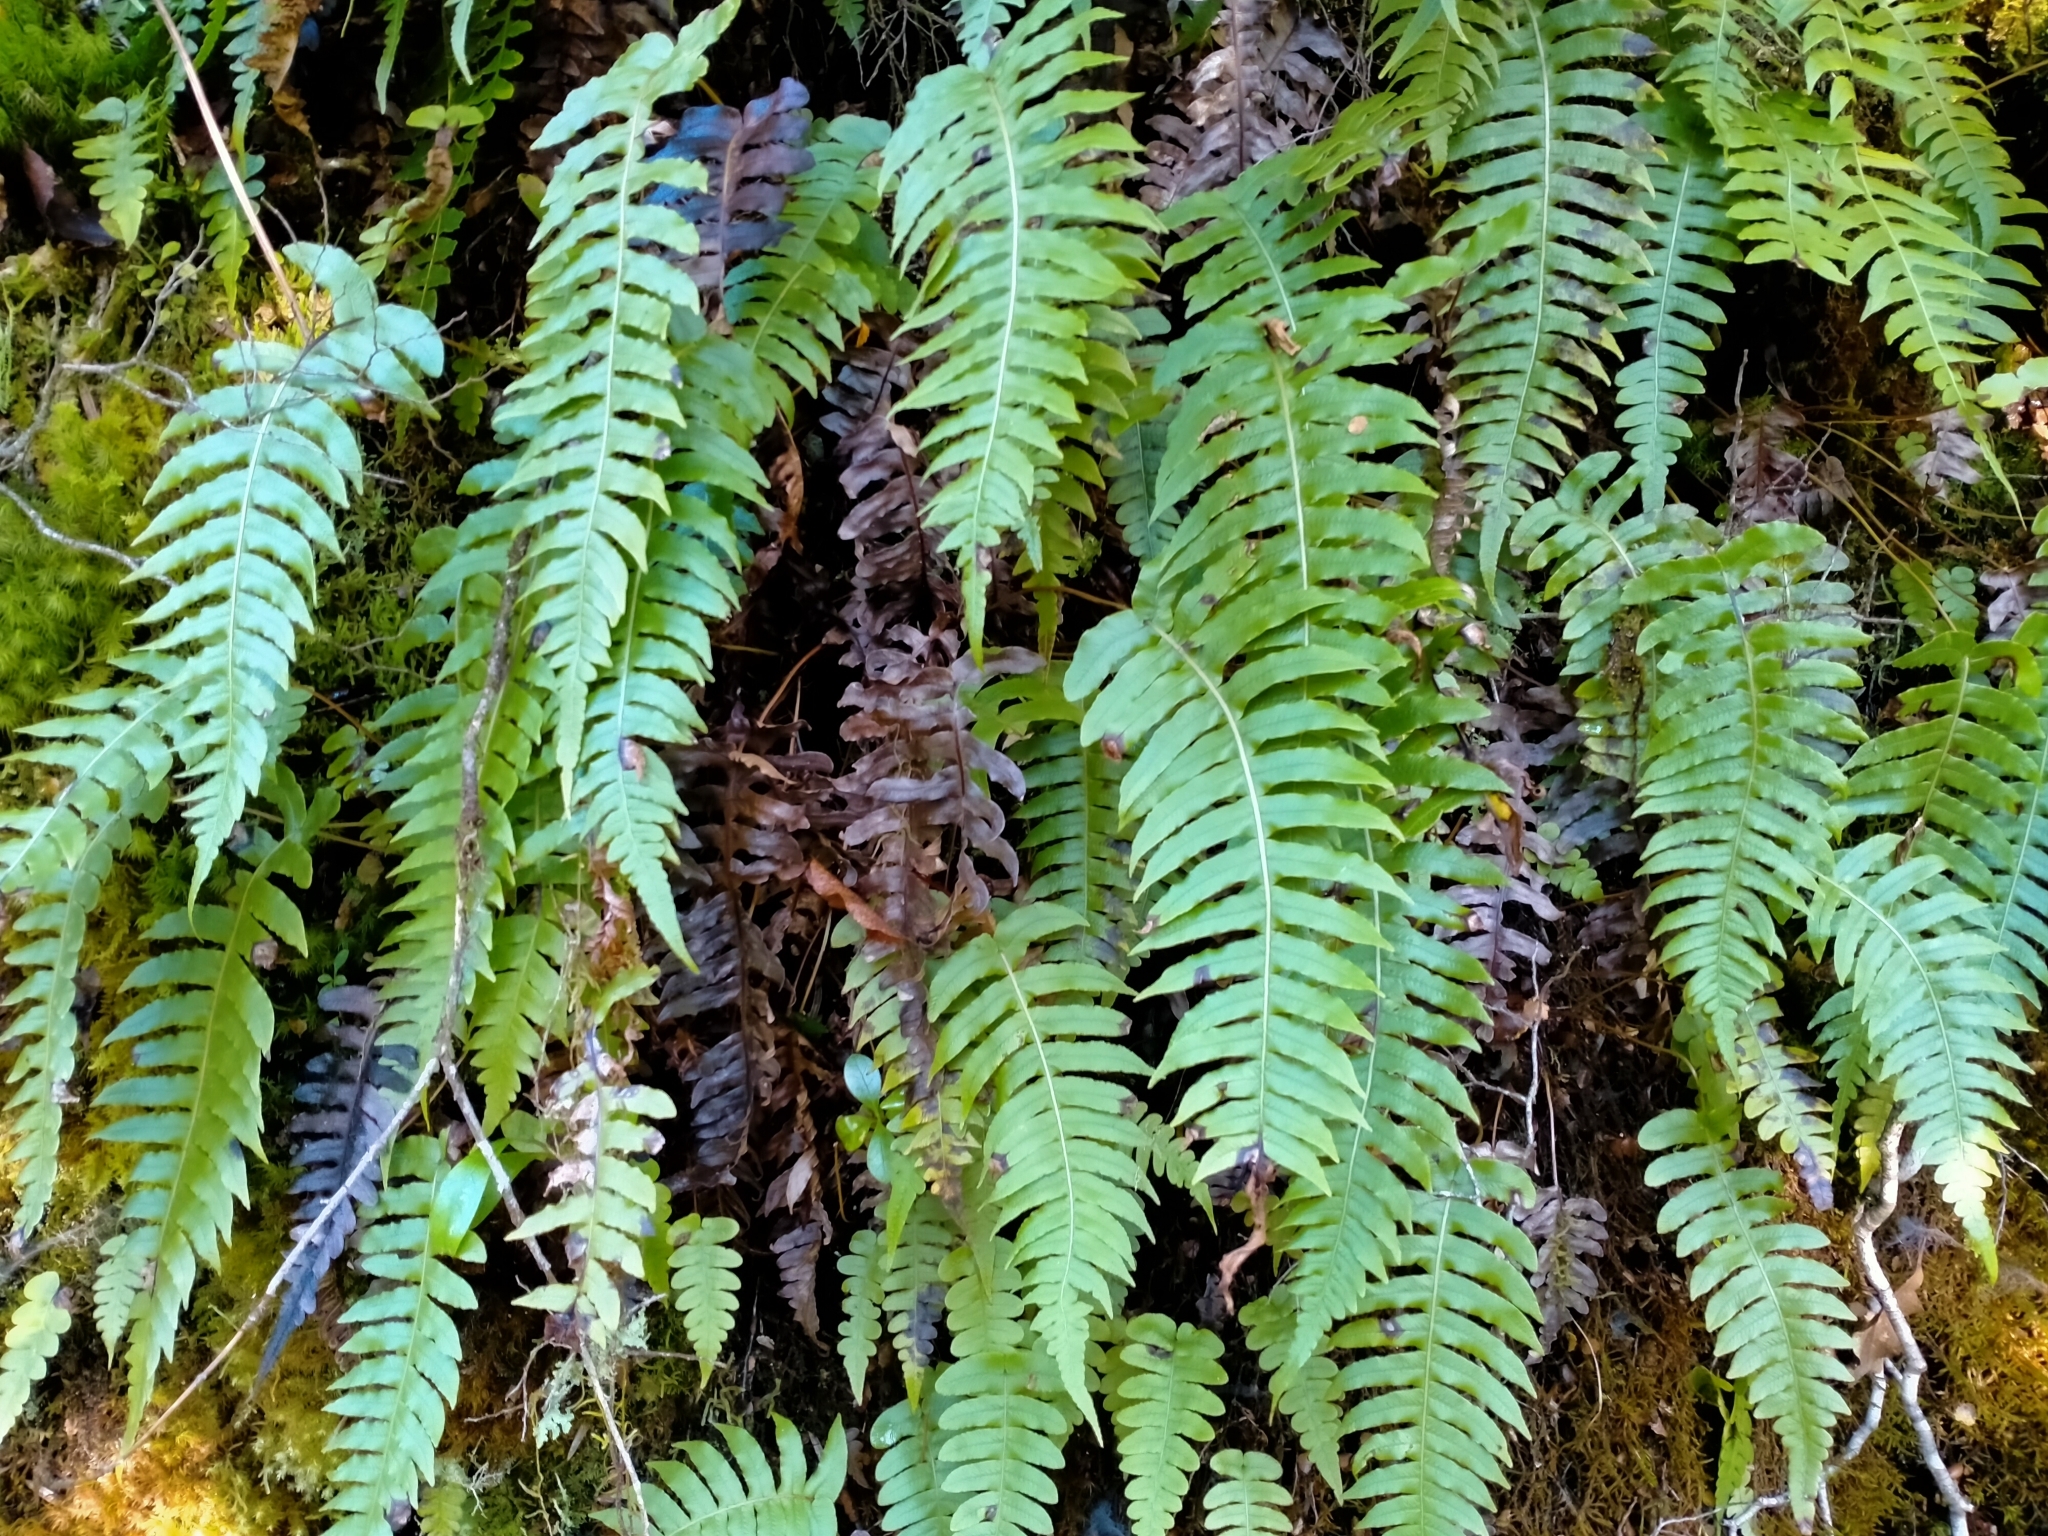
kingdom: Plantae
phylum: Tracheophyta
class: Polypodiopsida
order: Polypodiales
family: Blechnaceae
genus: Cranfillia
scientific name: Cranfillia deltoides
